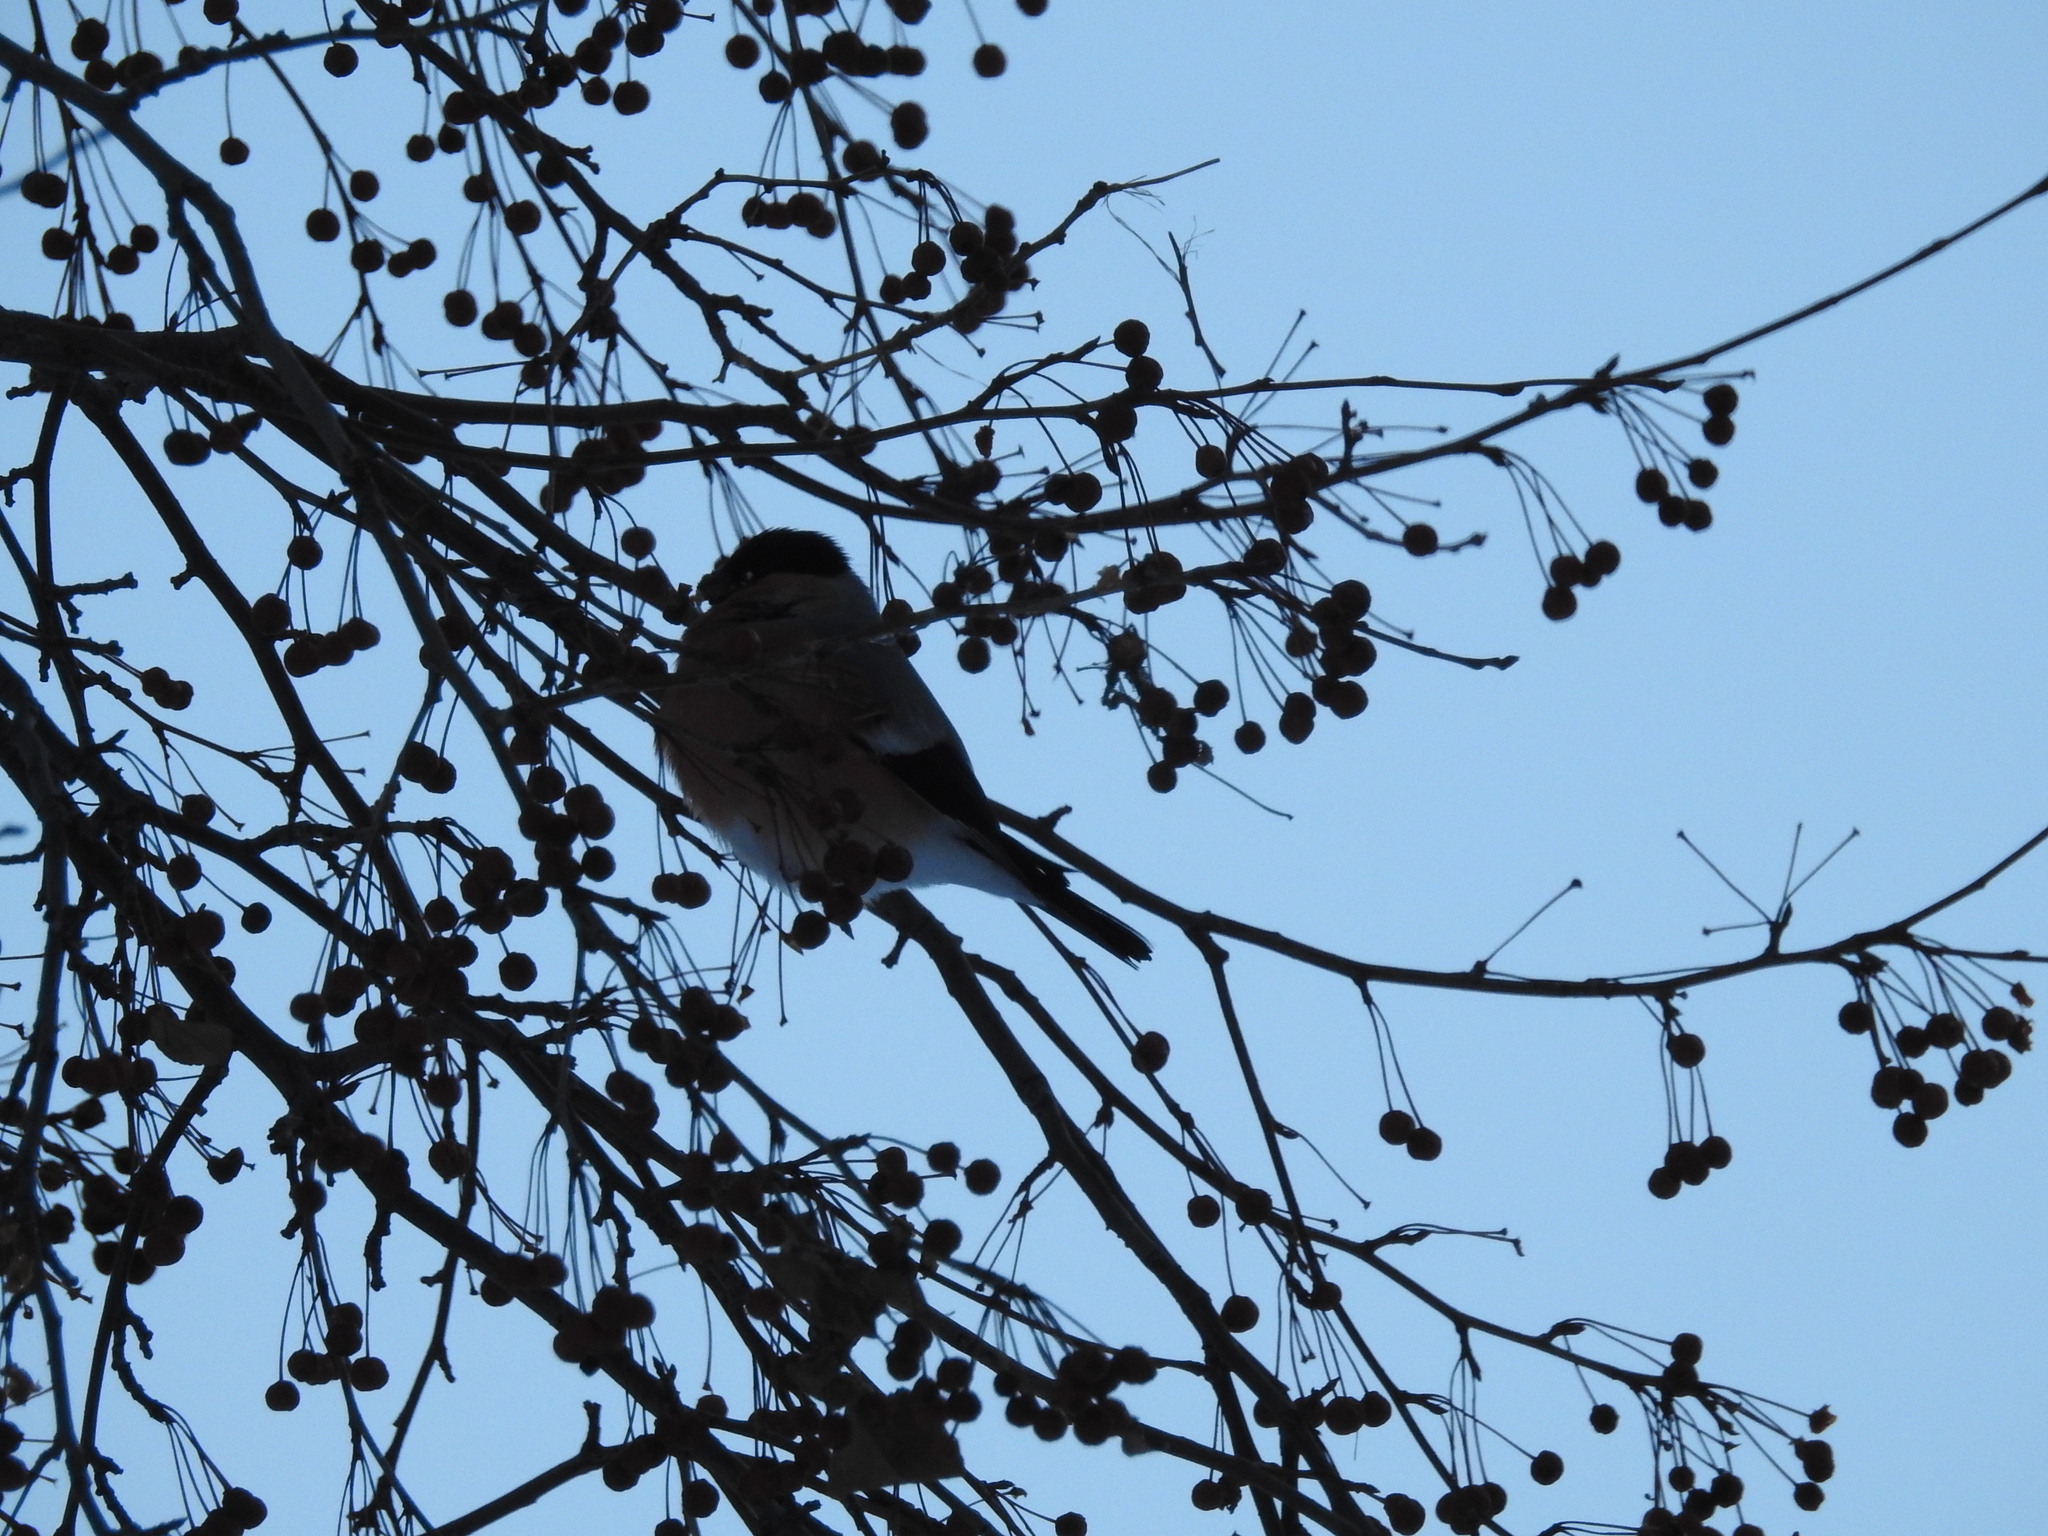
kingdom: Animalia
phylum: Chordata
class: Aves
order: Passeriformes
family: Fringillidae
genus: Pyrrhula
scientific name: Pyrrhula pyrrhula
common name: Eurasian bullfinch
